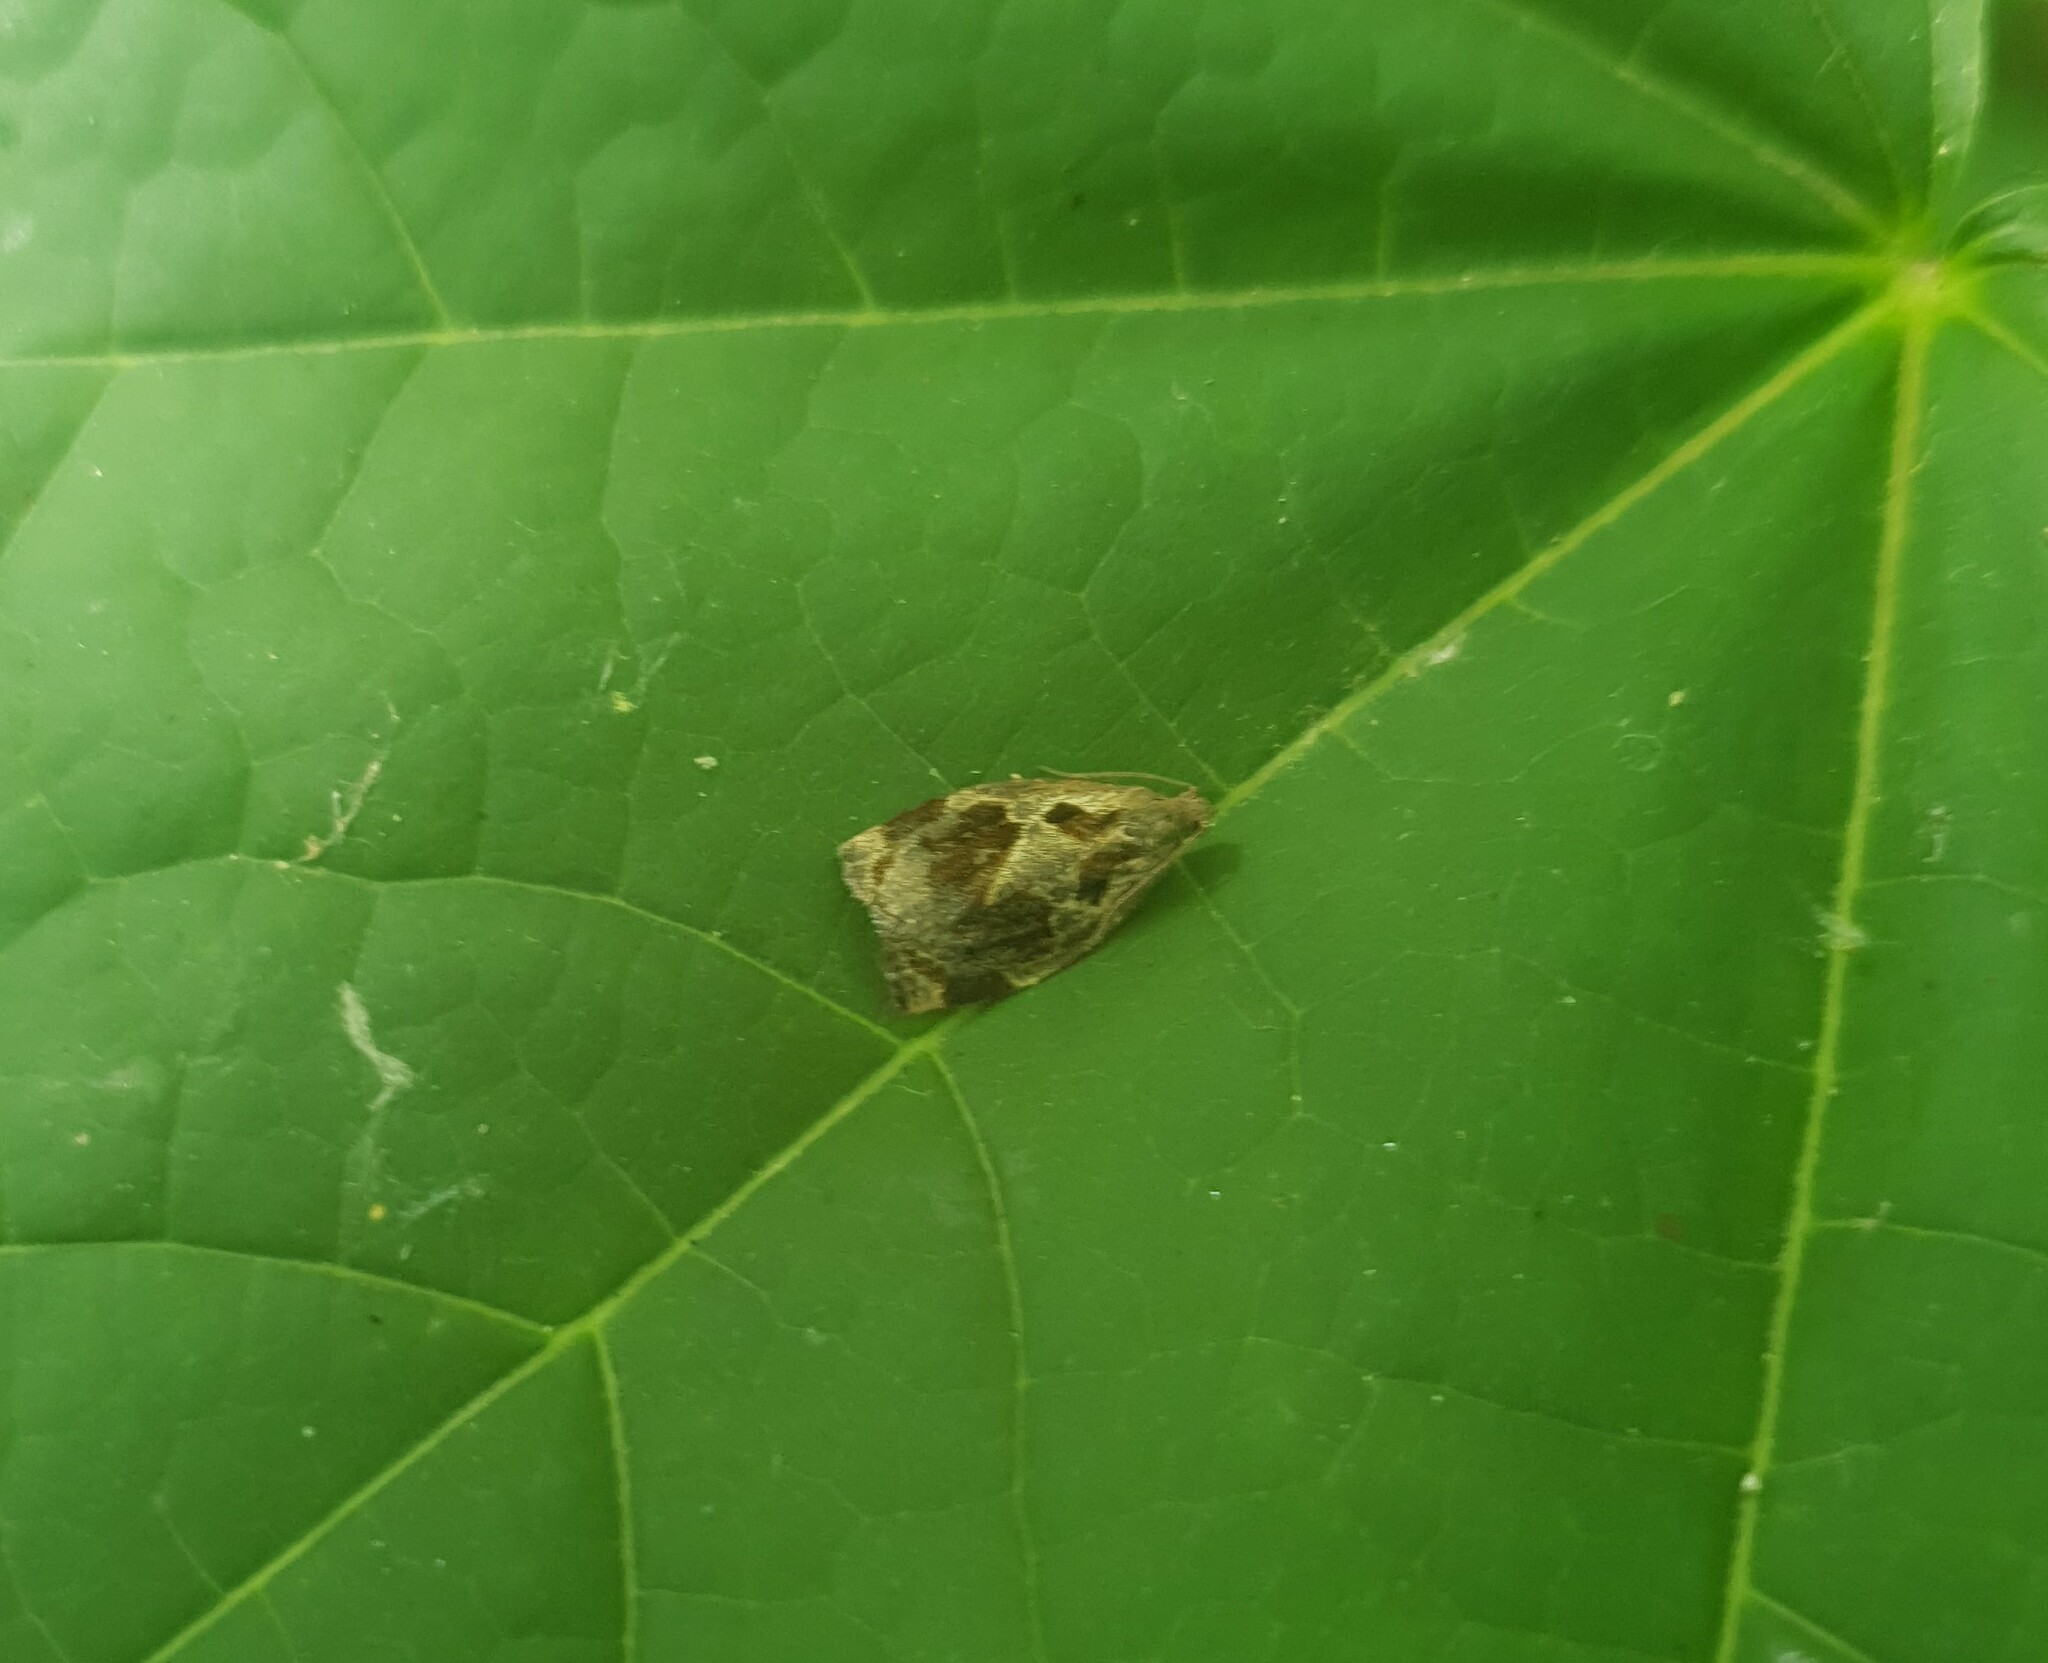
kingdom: Animalia
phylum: Arthropoda
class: Insecta
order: Lepidoptera
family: Tortricidae
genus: Archips
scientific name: Archips crataegana
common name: Brown oak tortrix
